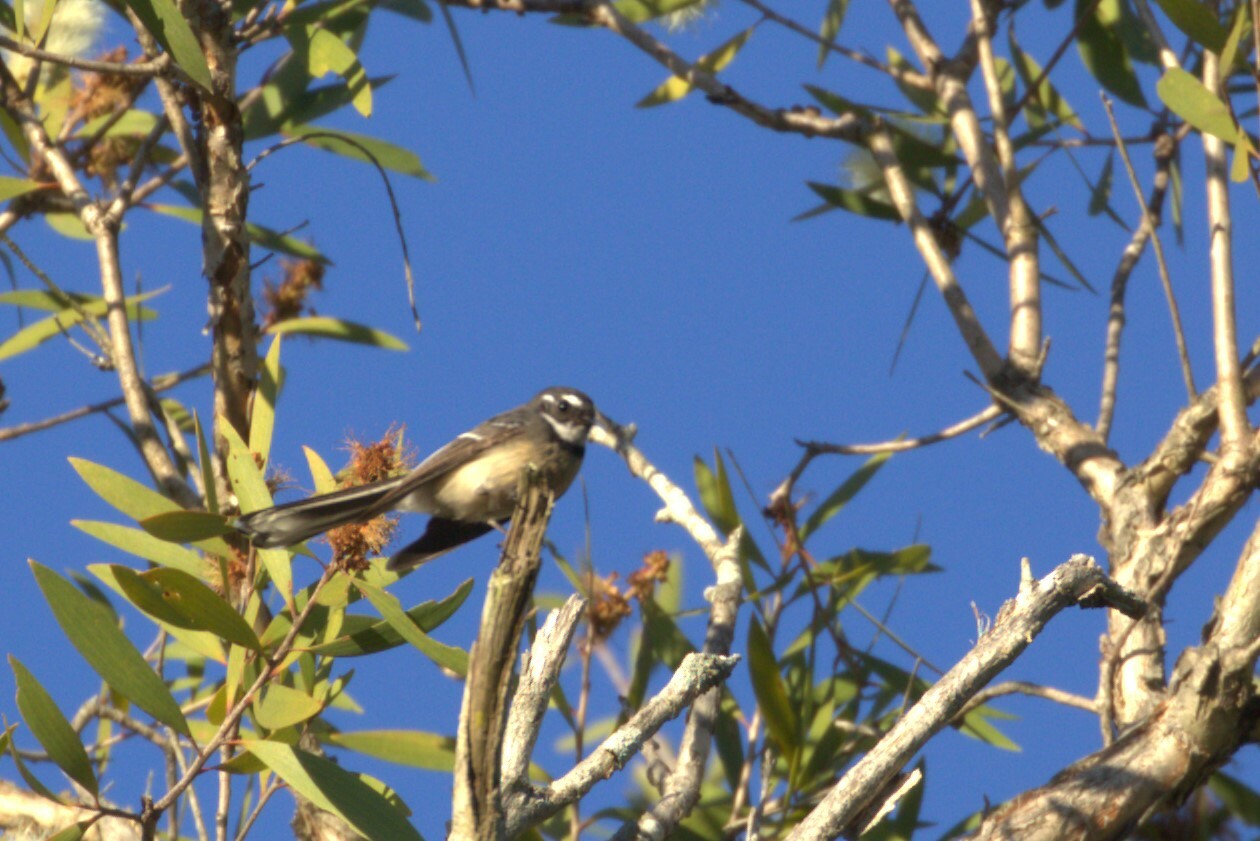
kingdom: Animalia
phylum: Chordata
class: Aves
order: Passeriformes
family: Rhipiduridae
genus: Rhipidura
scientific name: Rhipidura albiscapa
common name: Grey fantail
